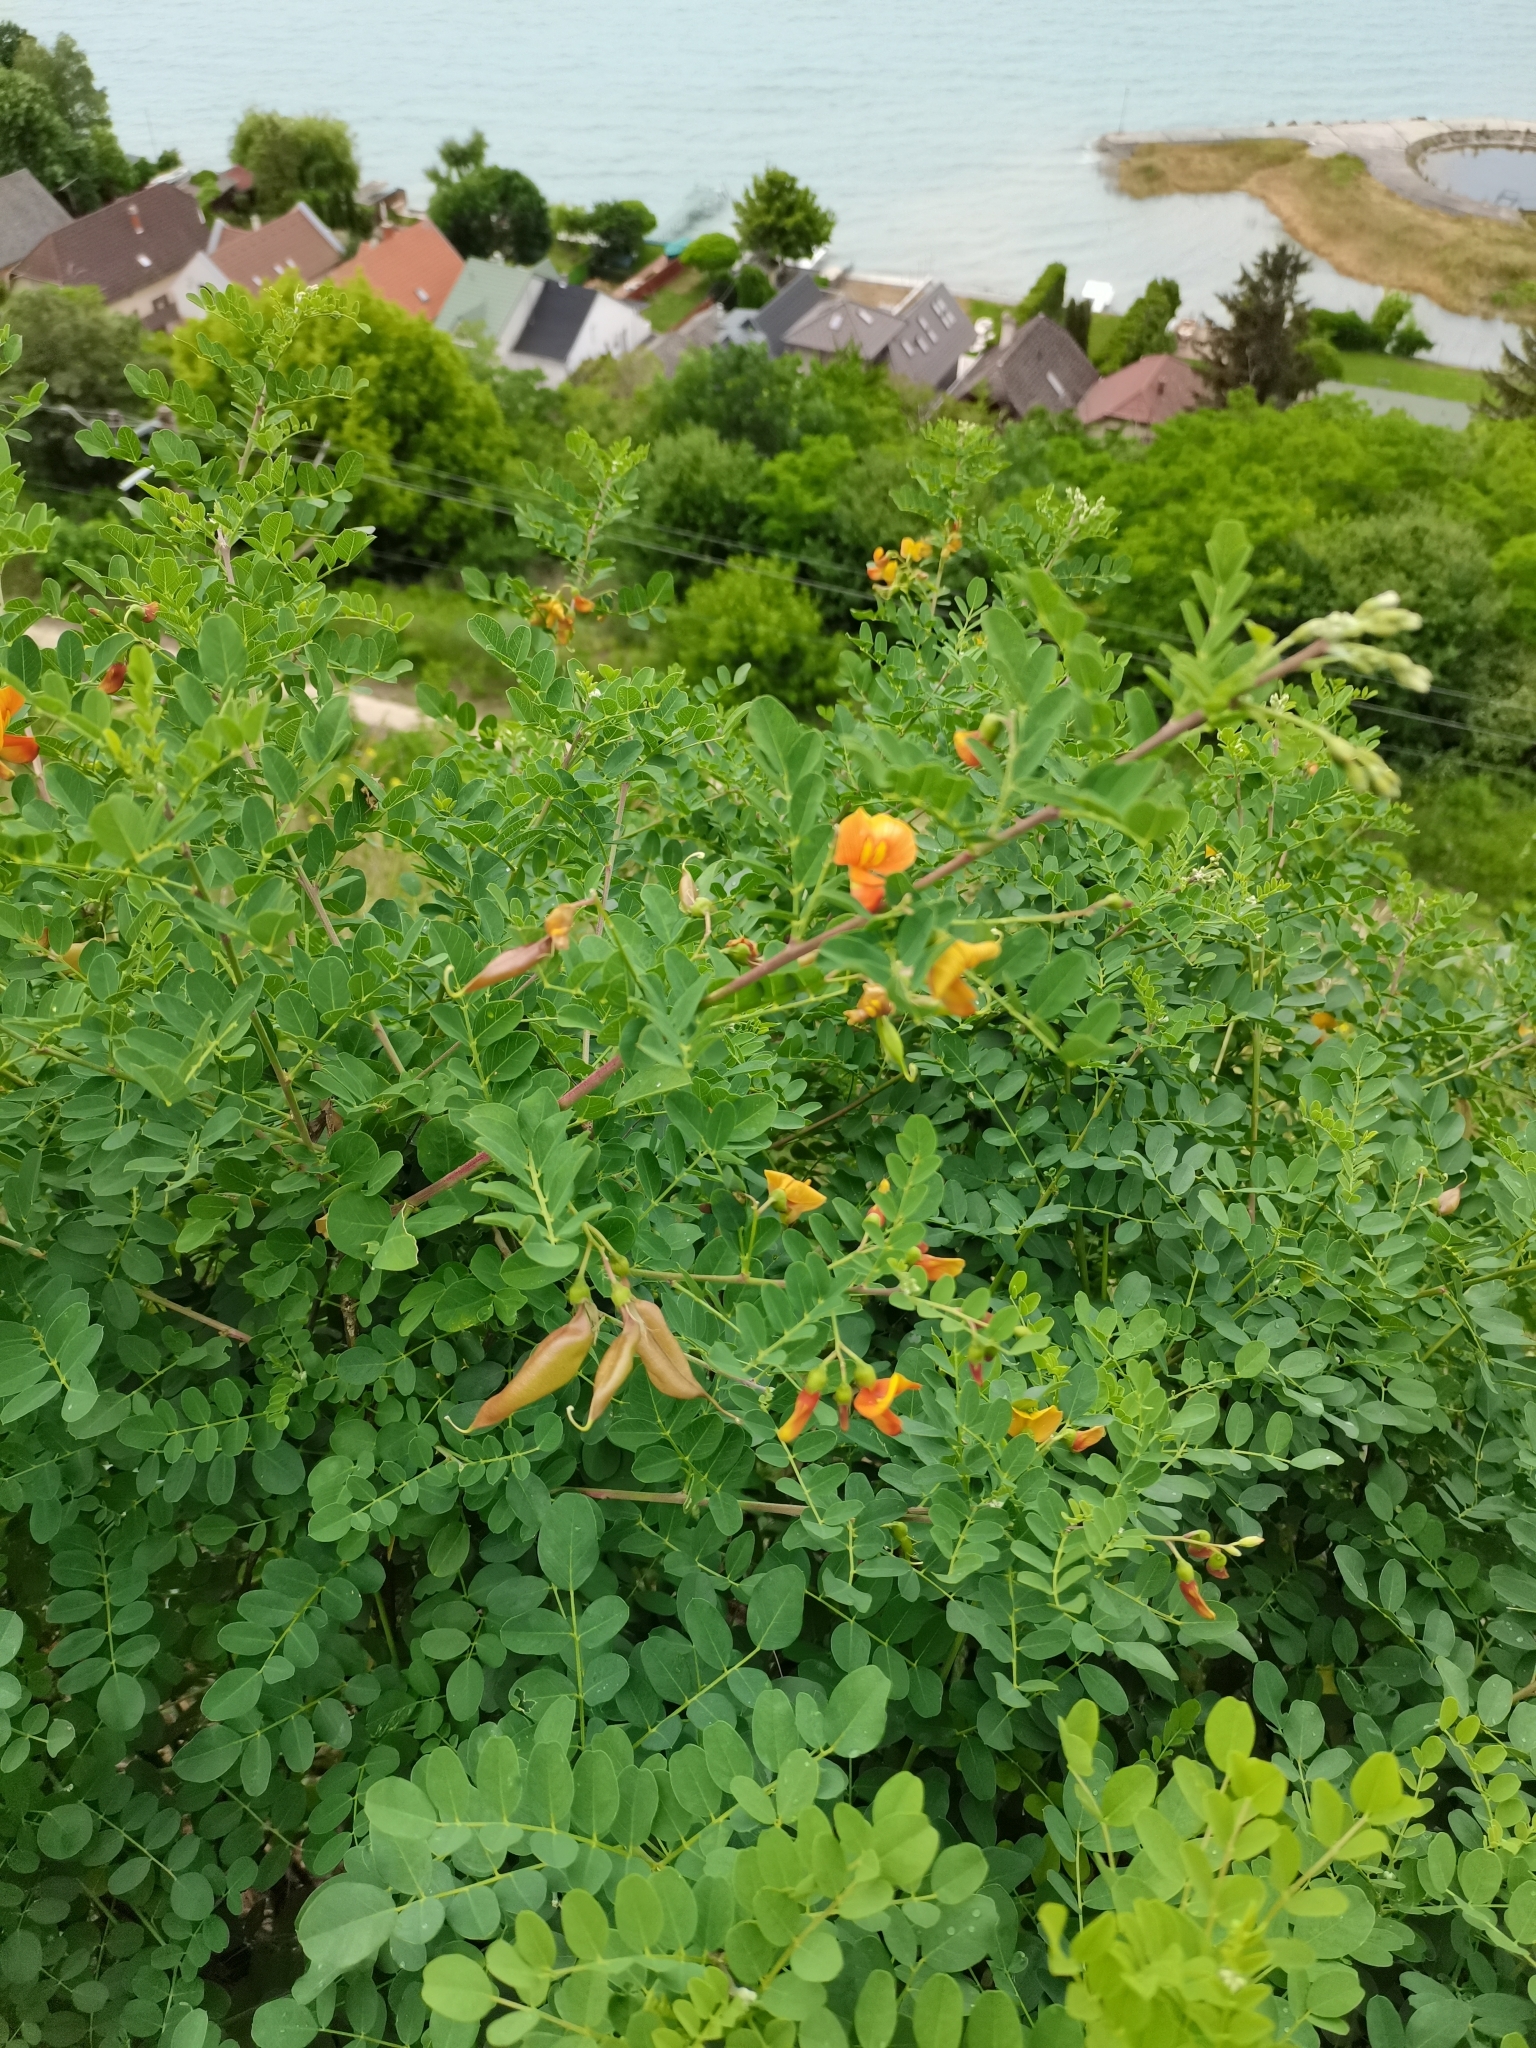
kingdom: Plantae
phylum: Tracheophyta
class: Magnoliopsida
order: Fabales
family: Fabaceae
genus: Colutea
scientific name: Colutea media
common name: Orange bladder-senna
